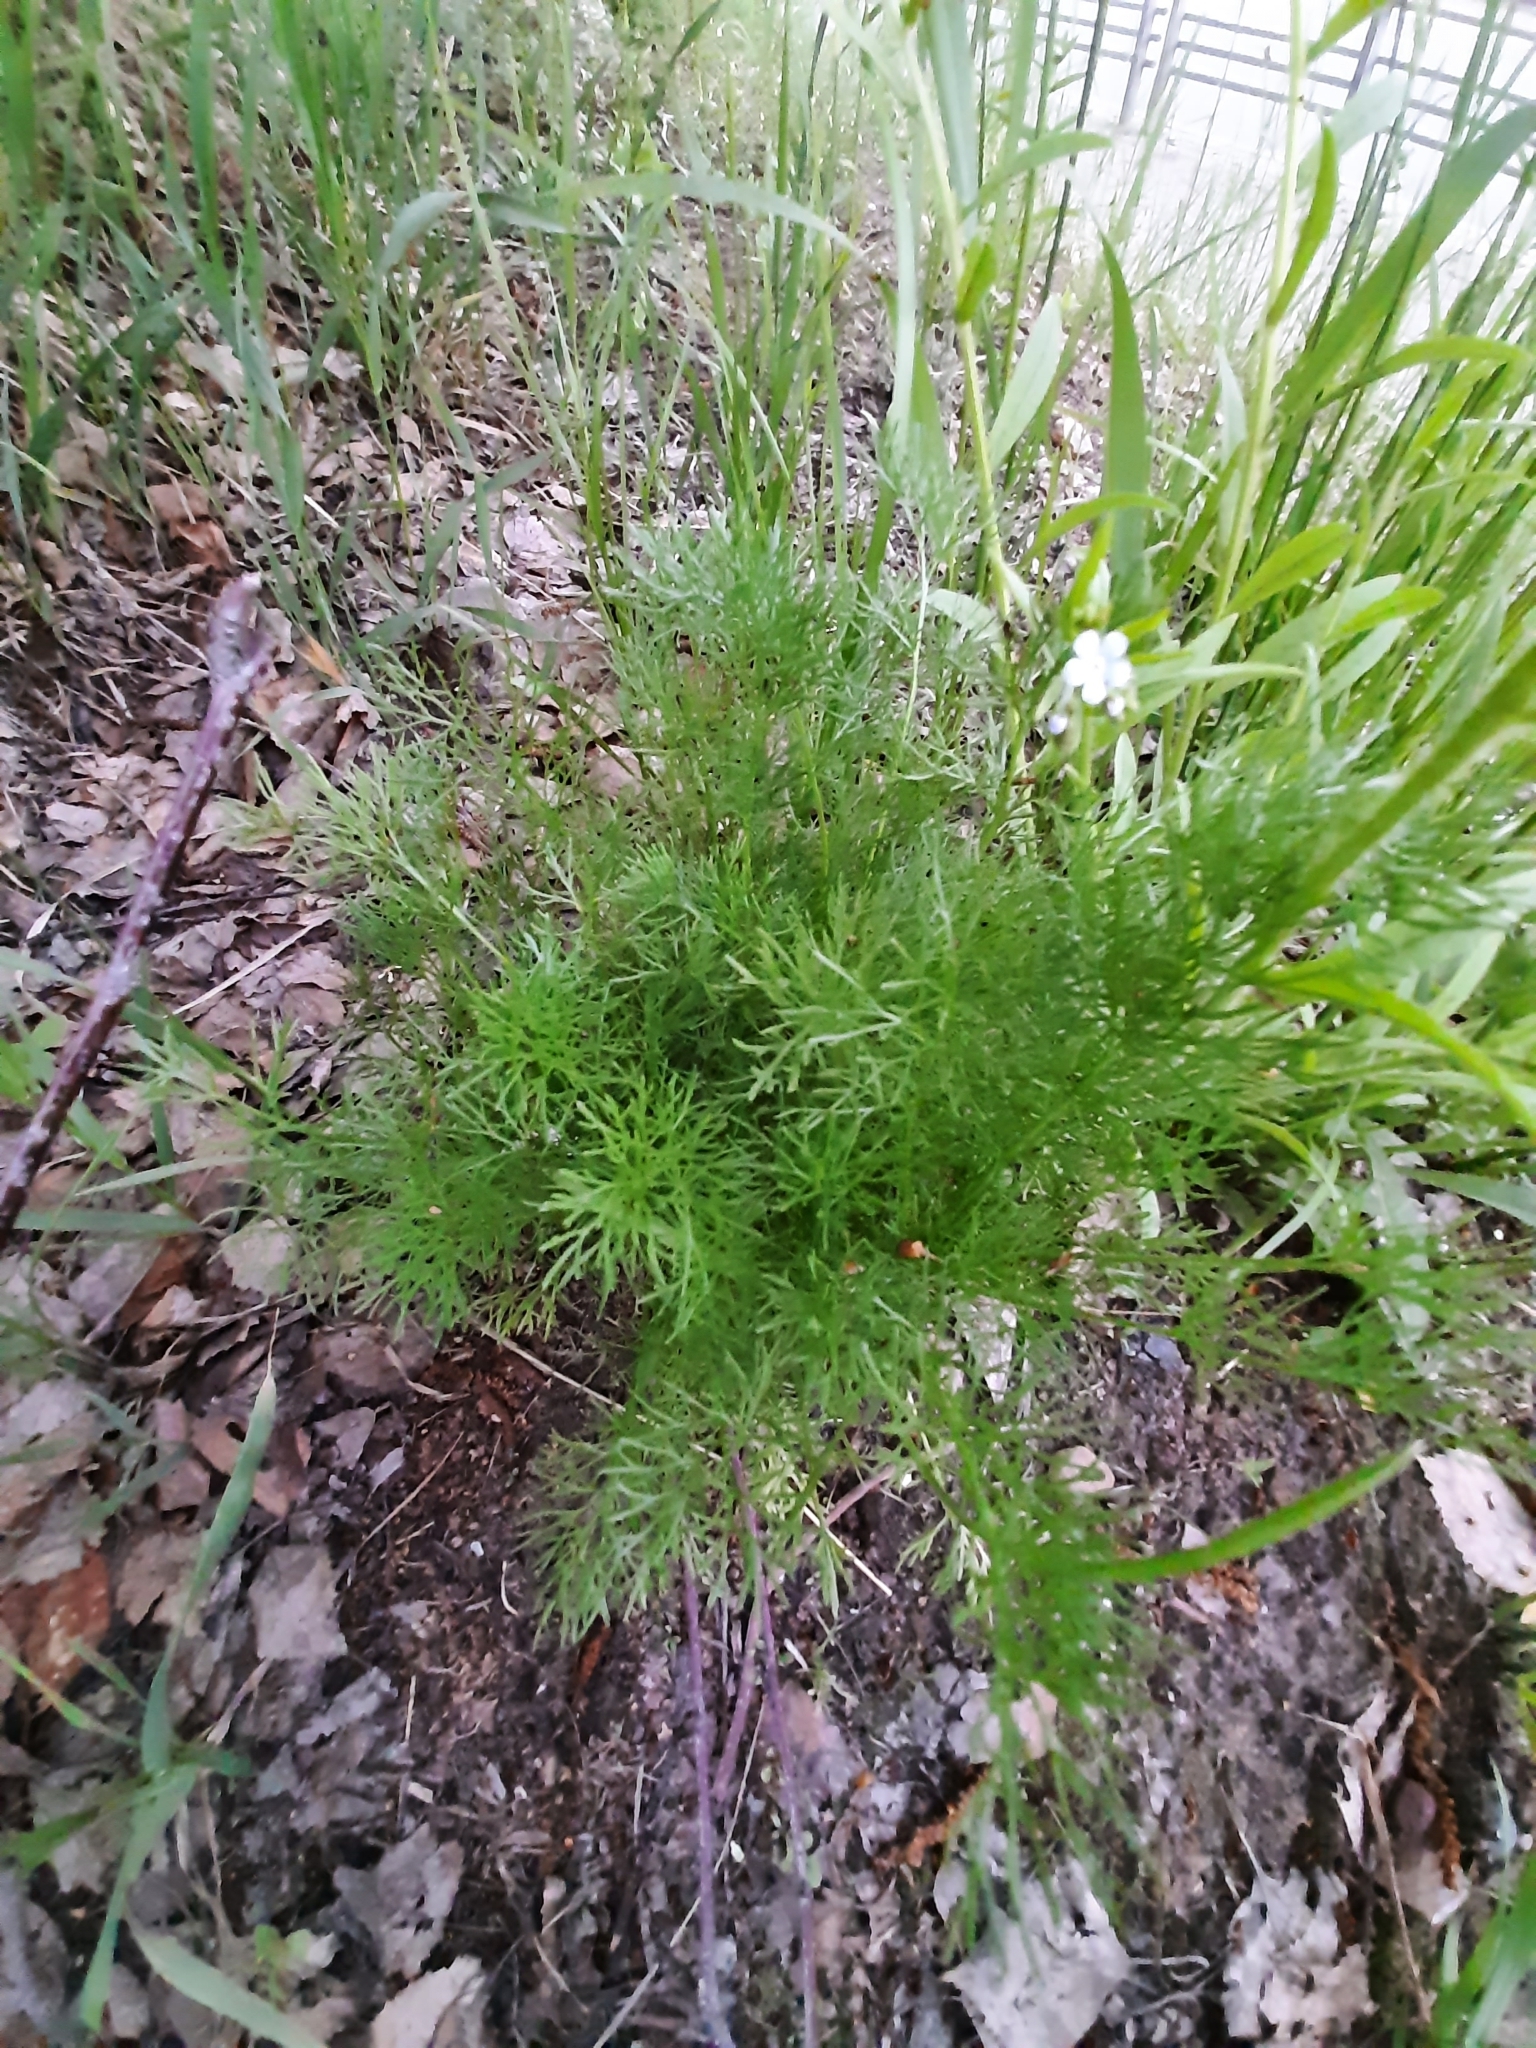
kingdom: Plantae
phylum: Tracheophyta
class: Magnoliopsida
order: Asterales
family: Asteraceae
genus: Tripleurospermum
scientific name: Tripleurospermum inodorum
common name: Scentless mayweed
